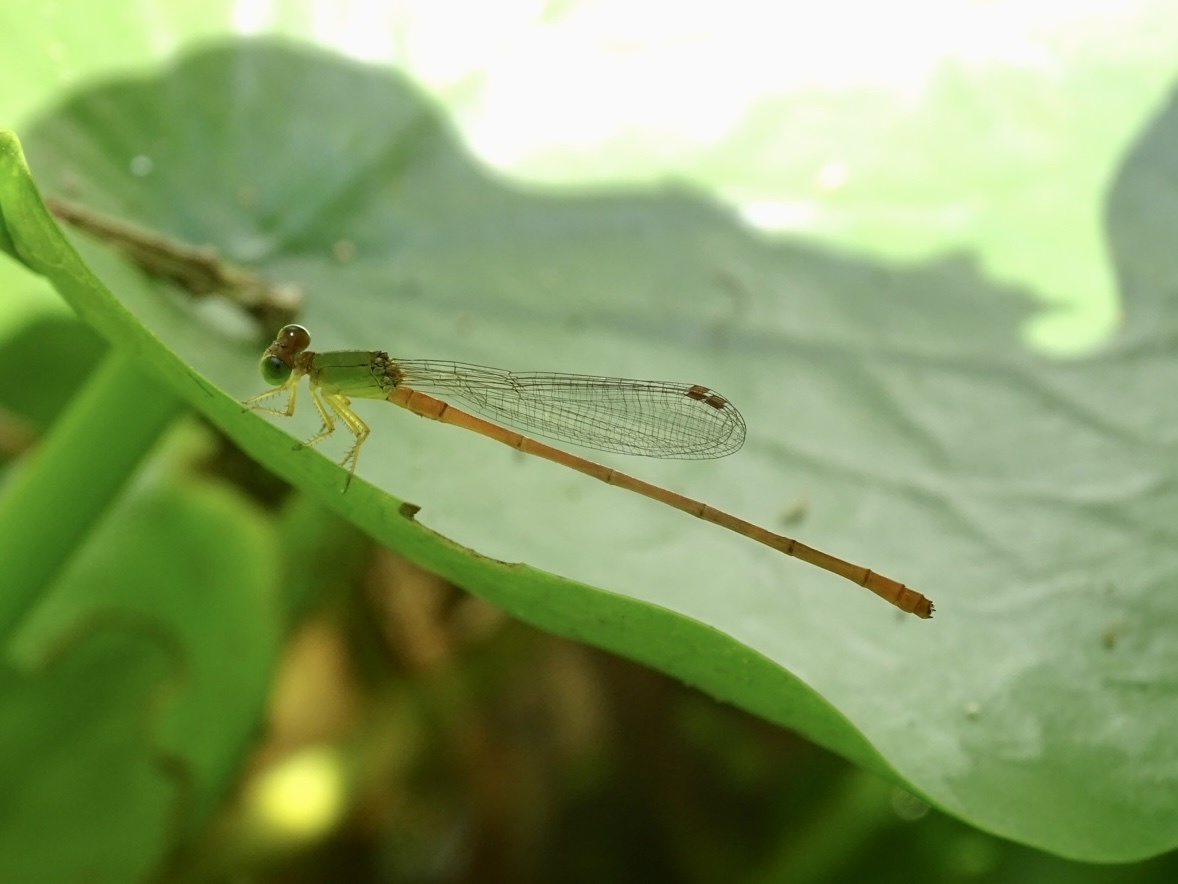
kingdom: Animalia
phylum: Arthropoda
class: Insecta
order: Odonata
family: Coenagrionidae
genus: Ceriagrion
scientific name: Ceriagrion auranticum
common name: Orange-tailed sprite
